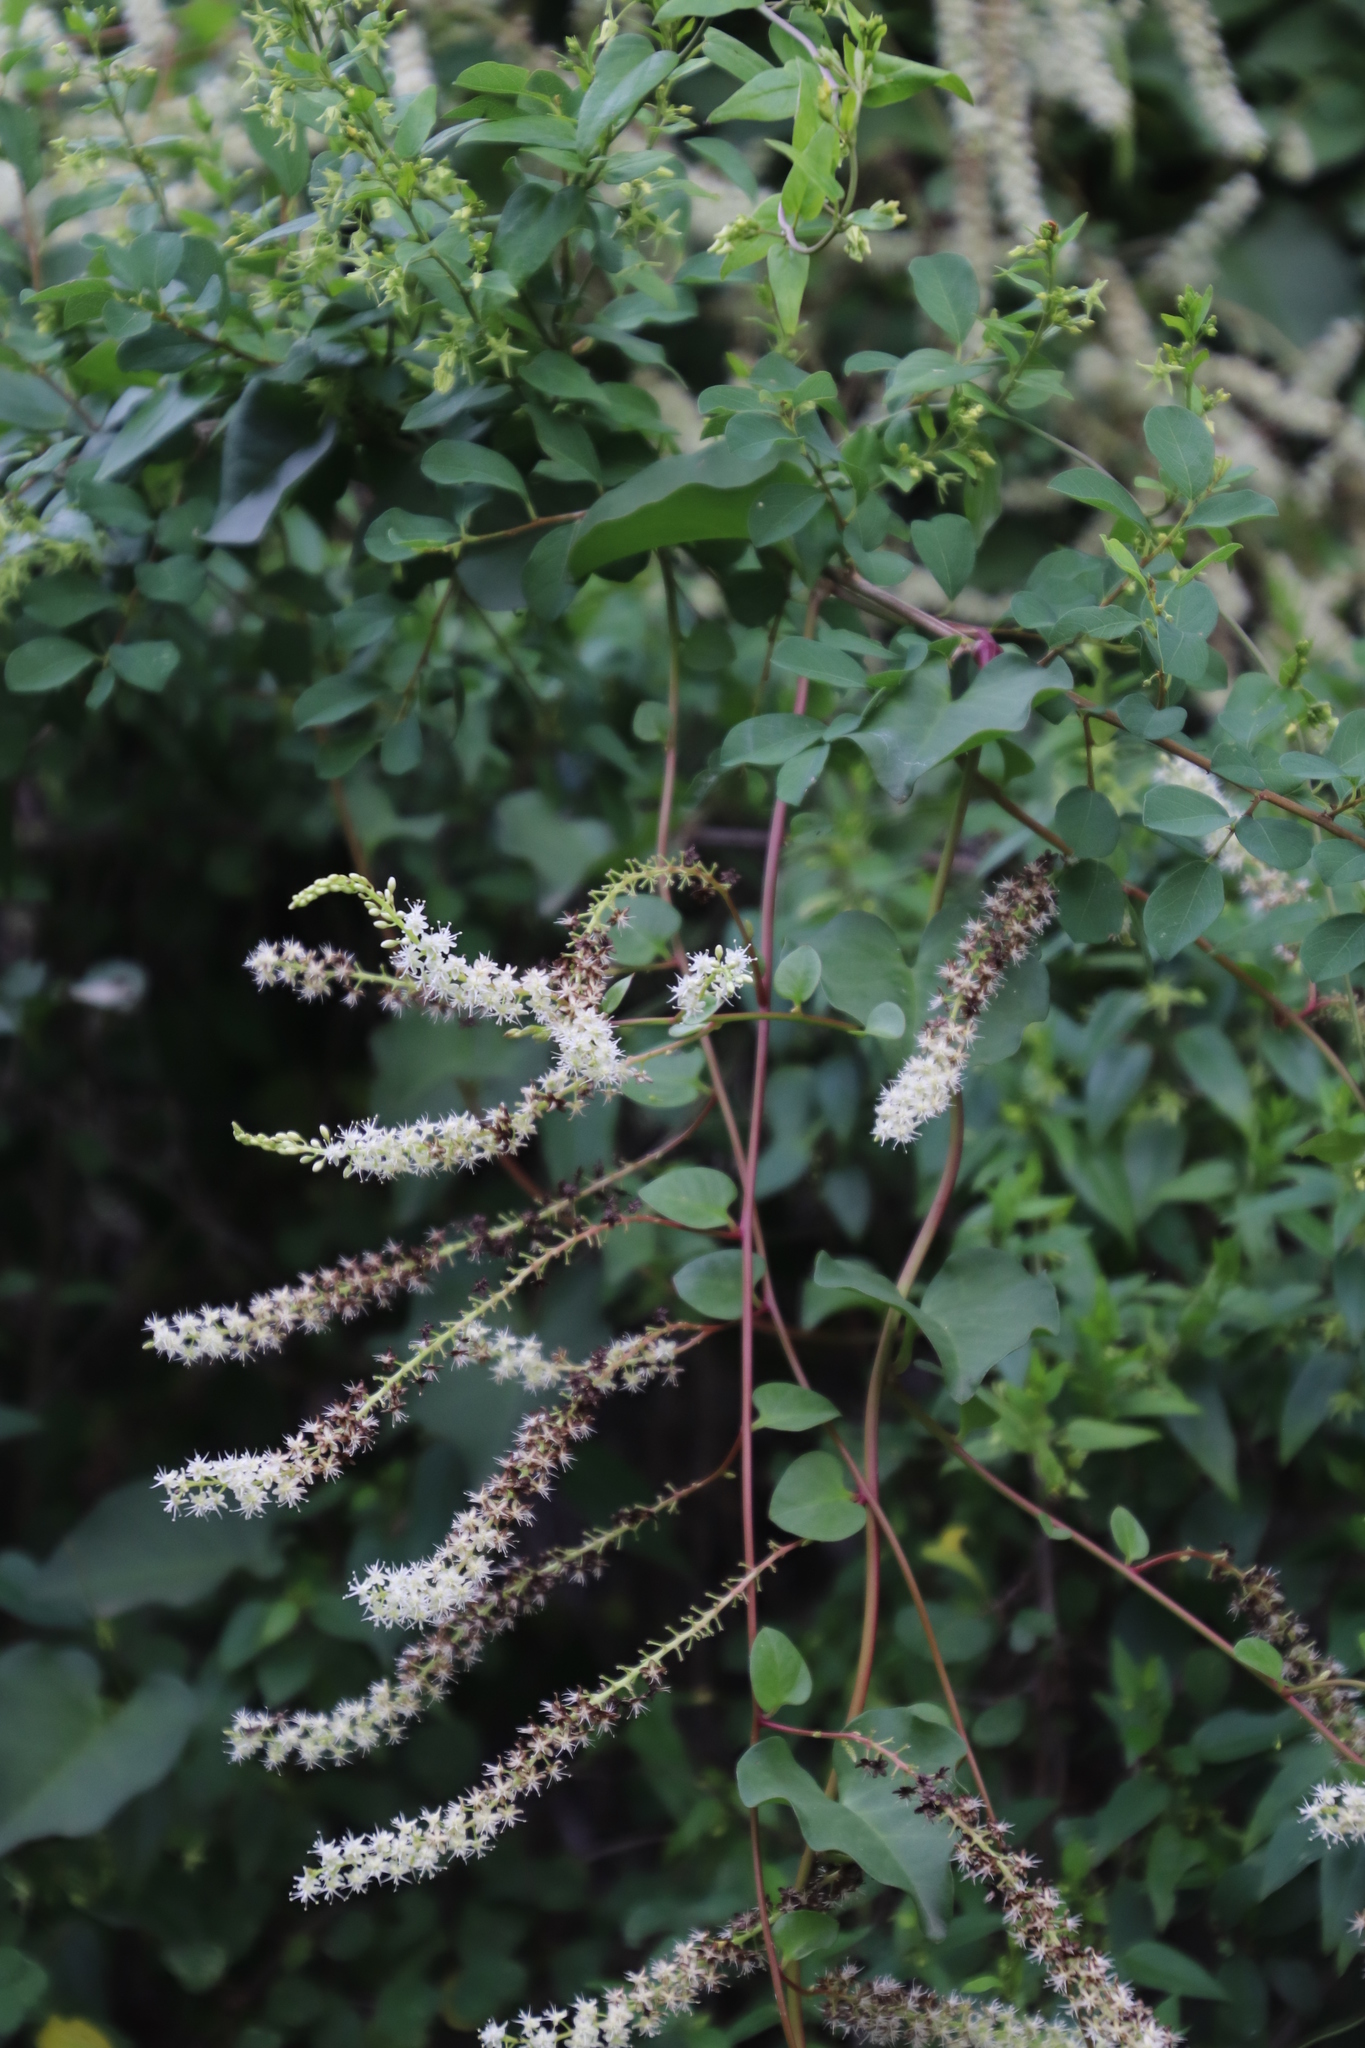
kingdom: Plantae
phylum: Tracheophyta
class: Magnoliopsida
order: Caryophyllales
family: Basellaceae
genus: Anredera
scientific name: Anredera cordifolia
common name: Heartleaf madeiravine
